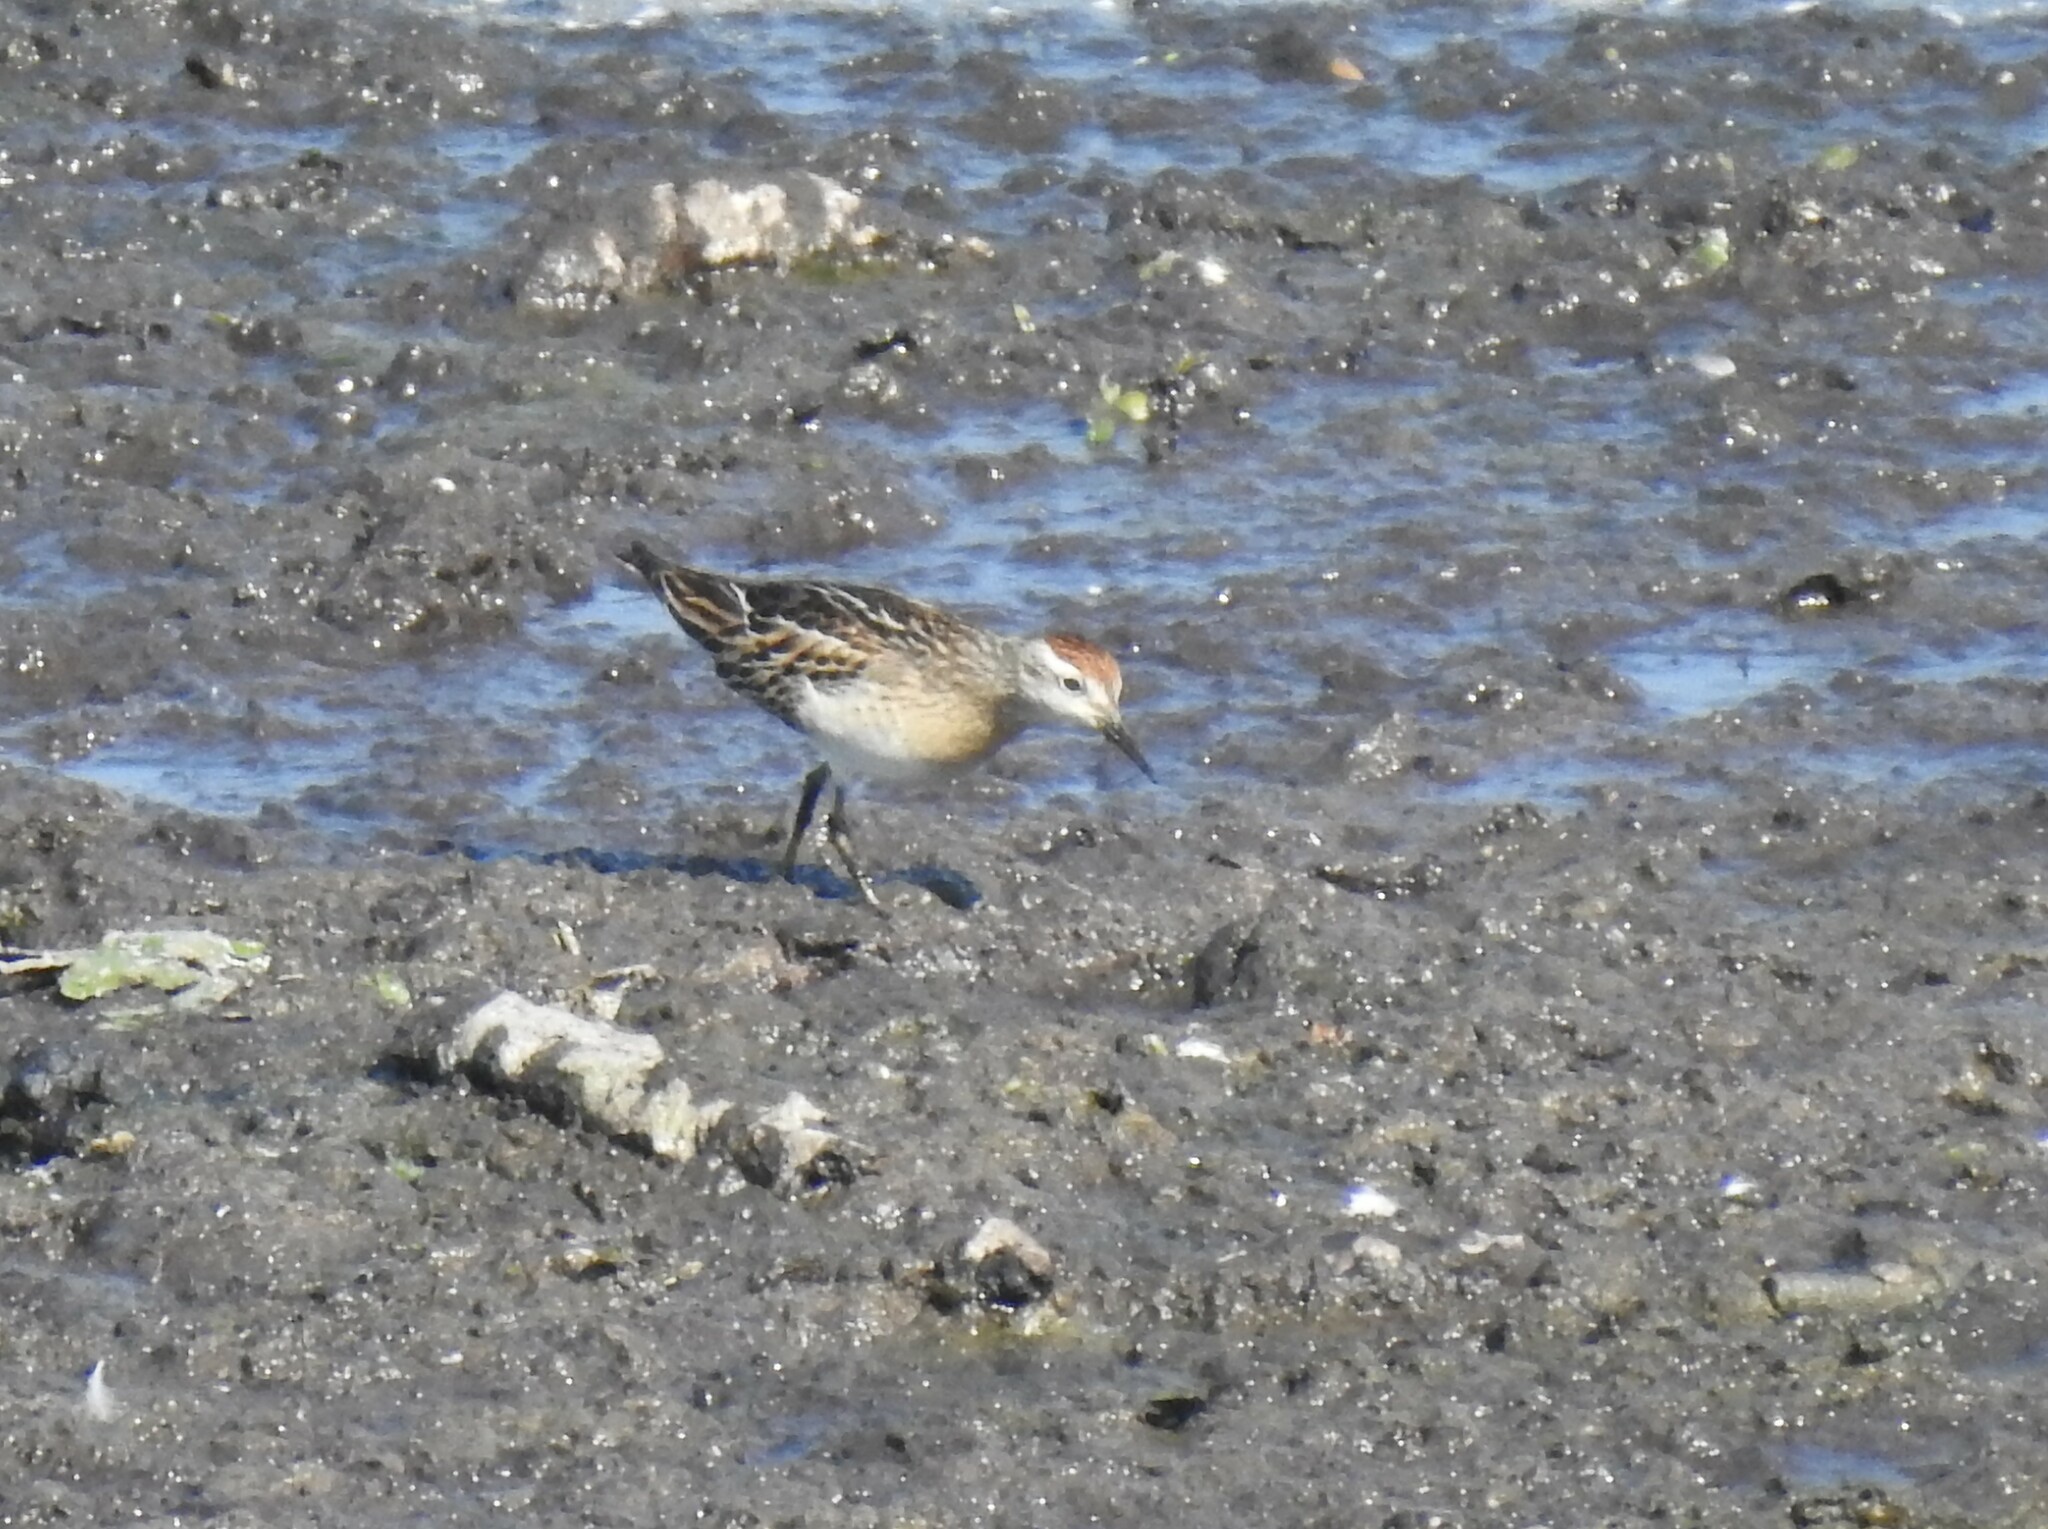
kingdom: Animalia
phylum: Chordata
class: Aves
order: Charadriiformes
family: Scolopacidae
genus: Calidris
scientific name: Calidris acuminata
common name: Sharp-tailed sandpiper
